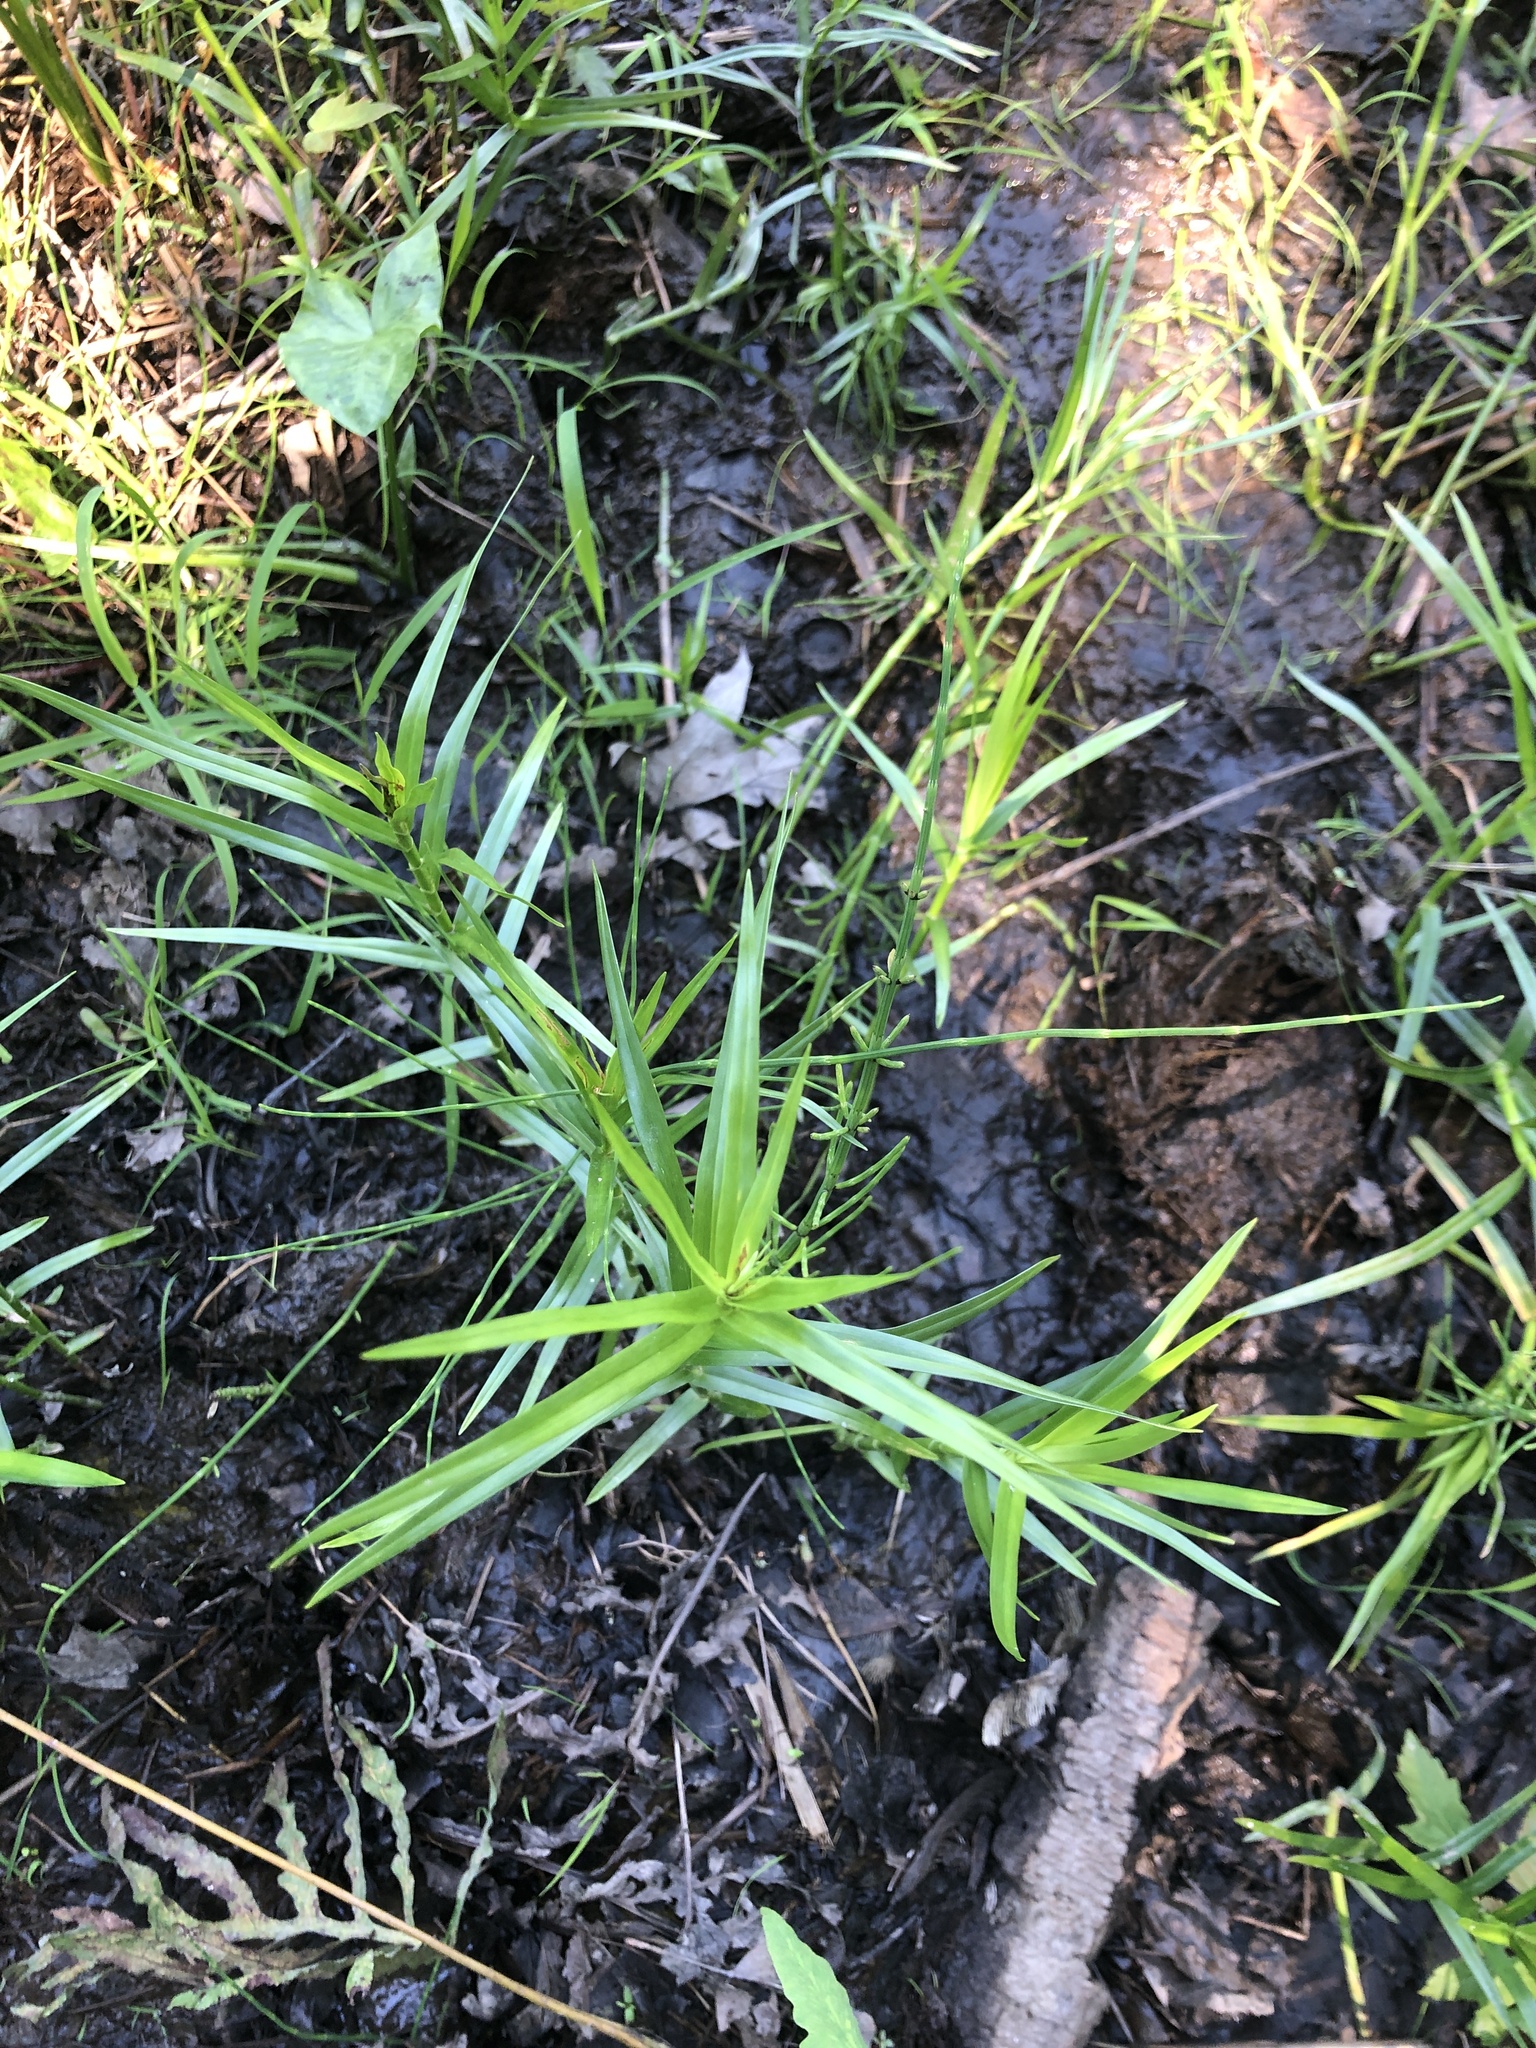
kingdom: Plantae
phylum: Tracheophyta
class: Liliopsida
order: Poales
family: Cyperaceae
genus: Dulichium
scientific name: Dulichium arundinaceum
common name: Three-way sedge
